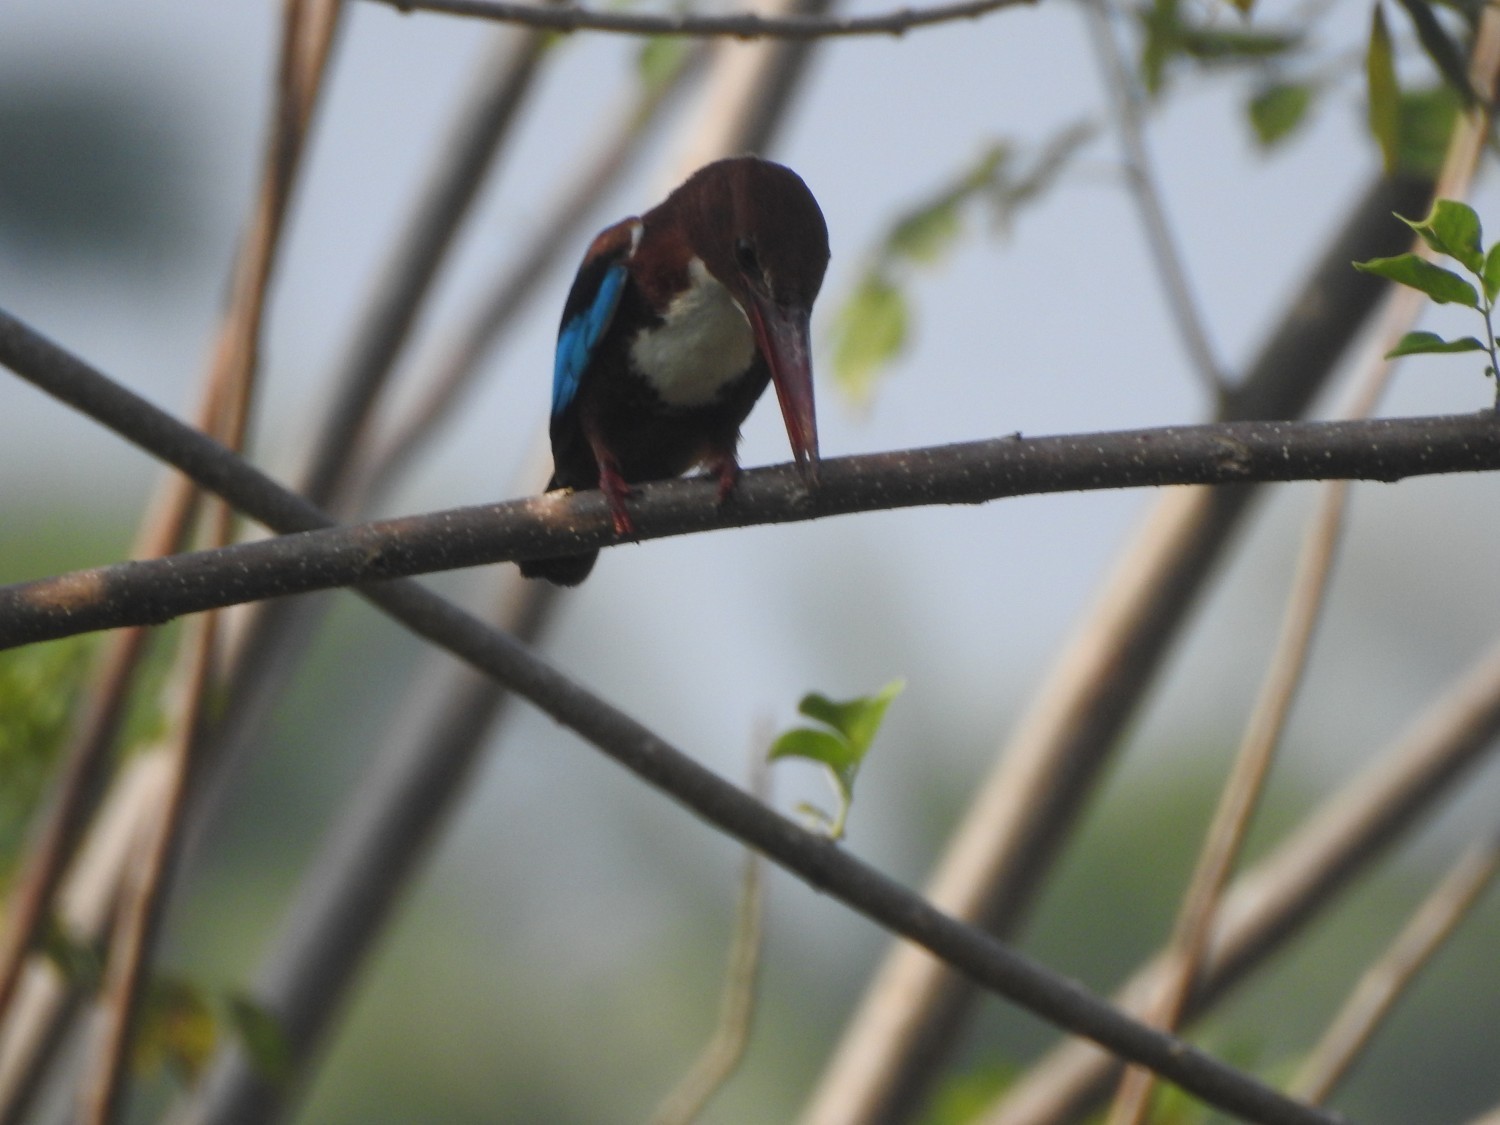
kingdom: Animalia
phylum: Chordata
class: Aves
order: Coraciiformes
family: Alcedinidae
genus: Halcyon
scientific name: Halcyon smyrnensis
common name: White-throated kingfisher
